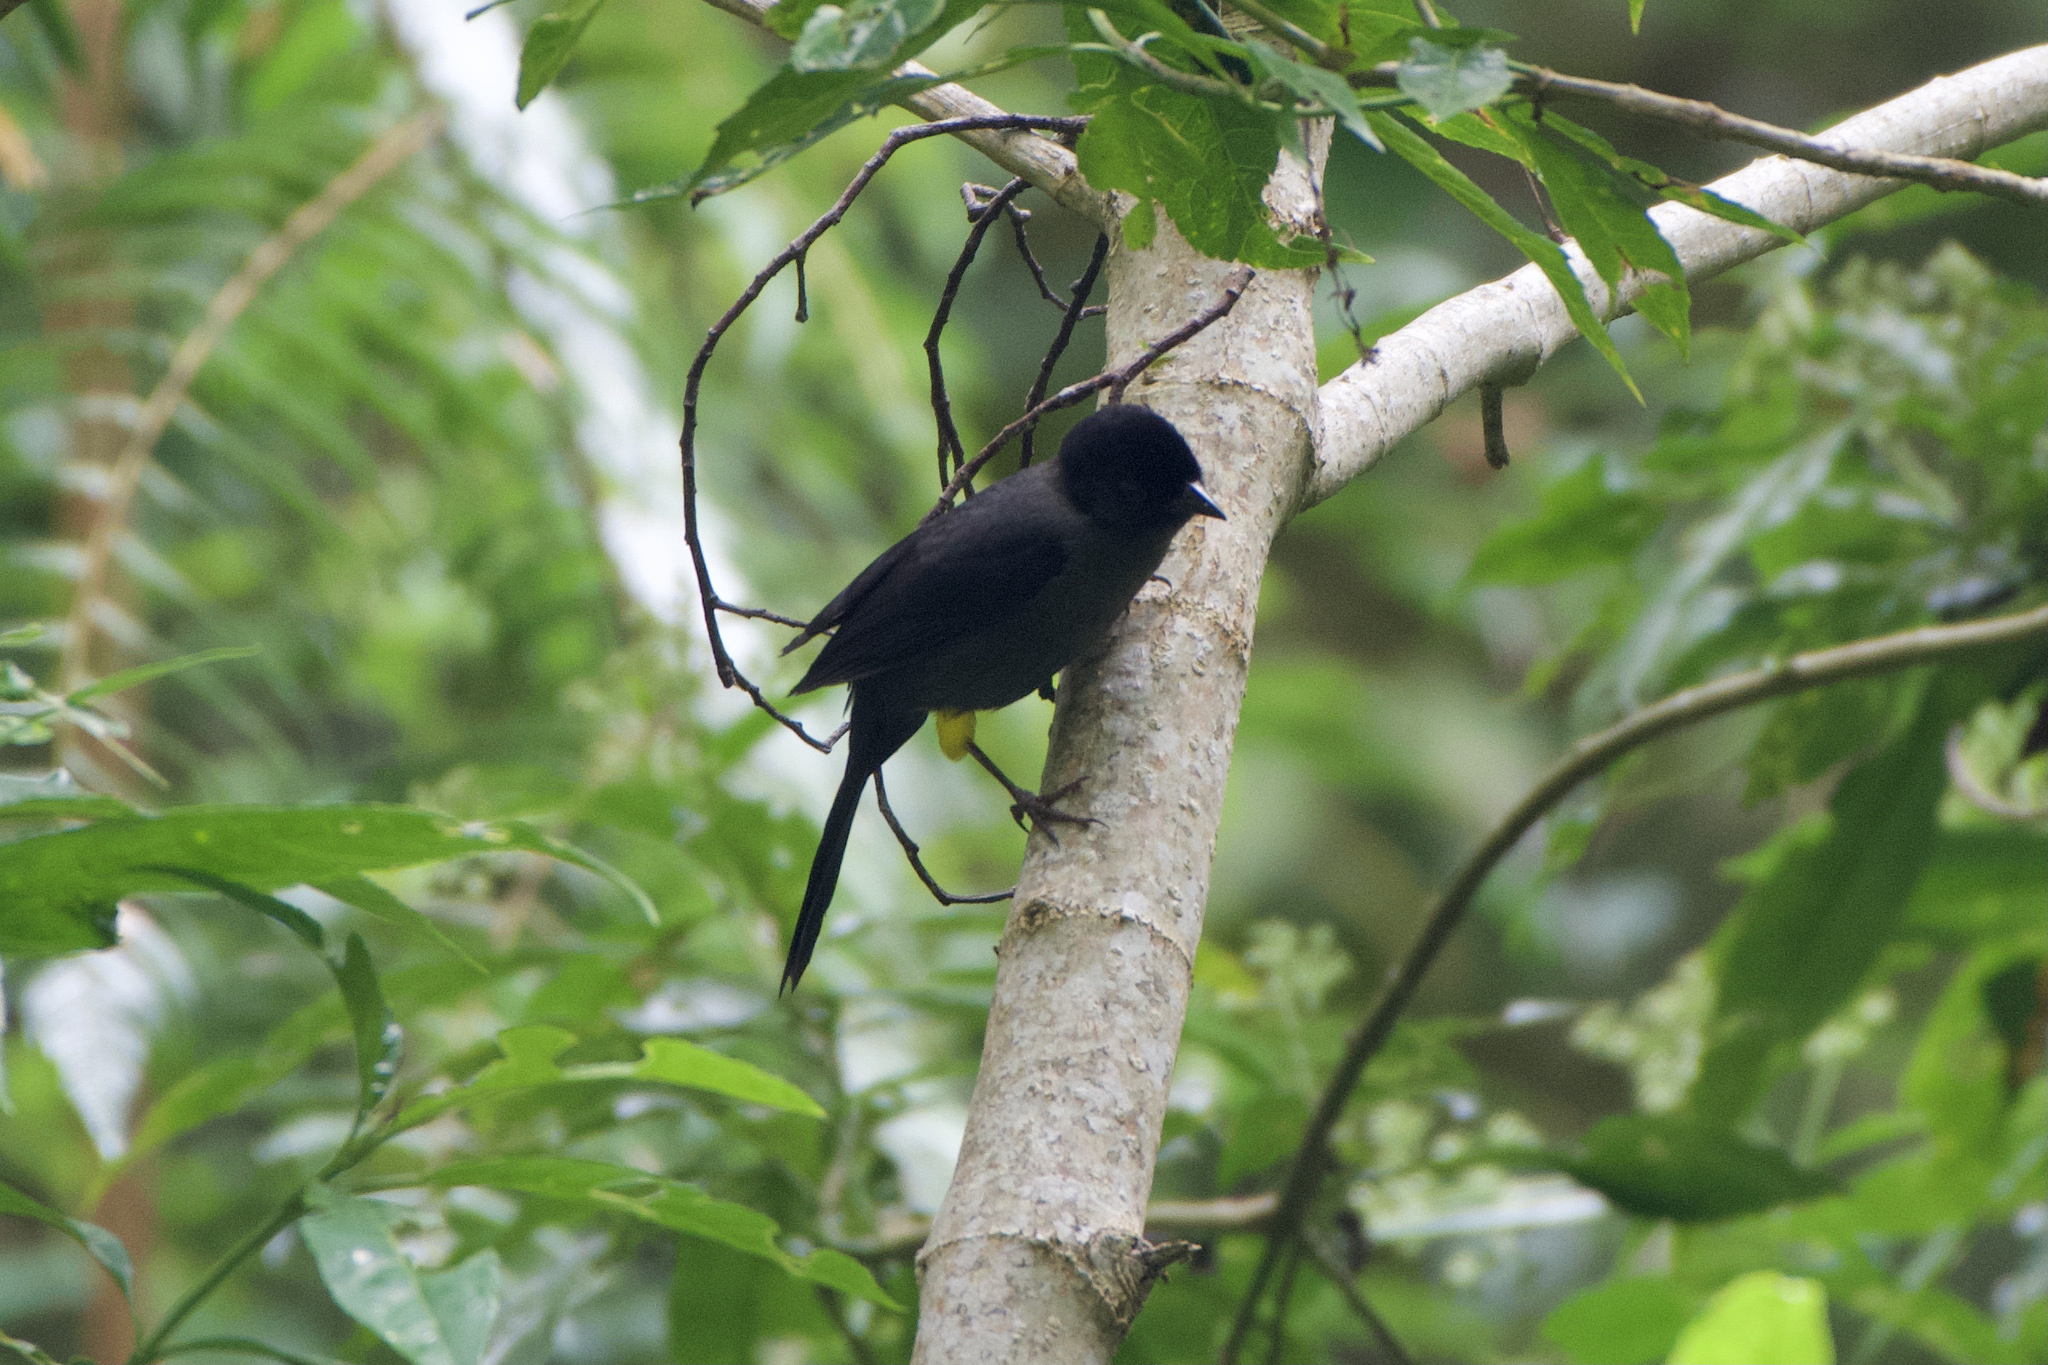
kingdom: Animalia
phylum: Chordata
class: Aves
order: Passeriformes
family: Passerellidae
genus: Atlapetes
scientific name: Atlapetes tibialis
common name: Yellow-thighed brushfinch
